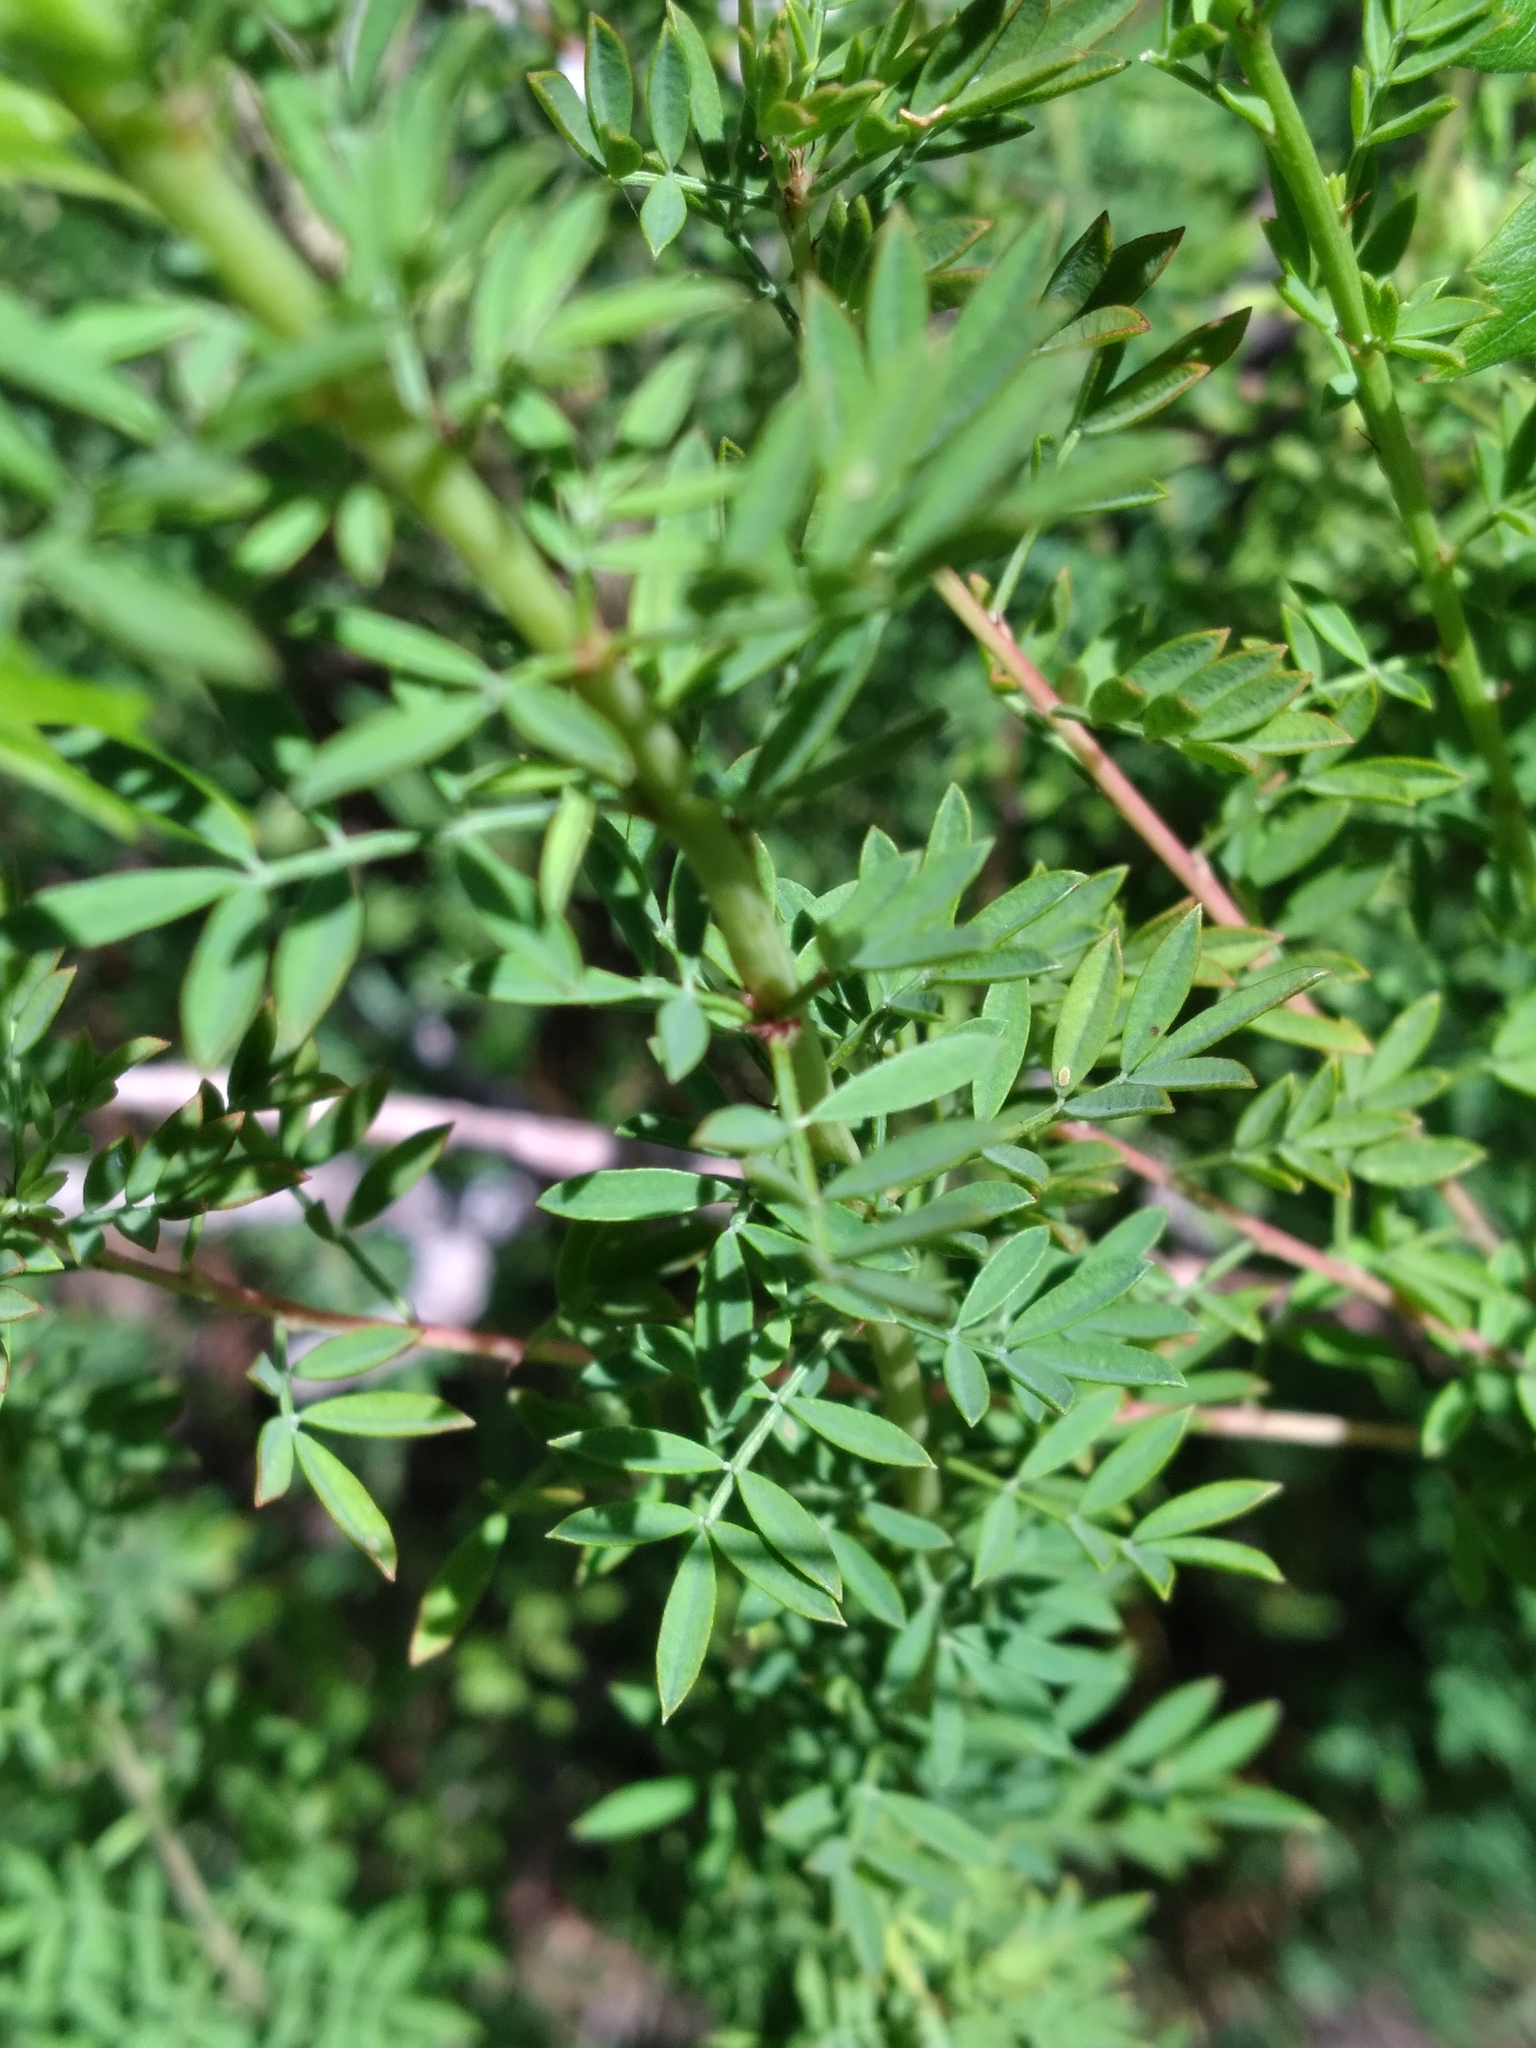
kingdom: Plantae
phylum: Tracheophyta
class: Magnoliopsida
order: Fabales
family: Fabaceae
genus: Dalea
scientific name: Dalea carnea
